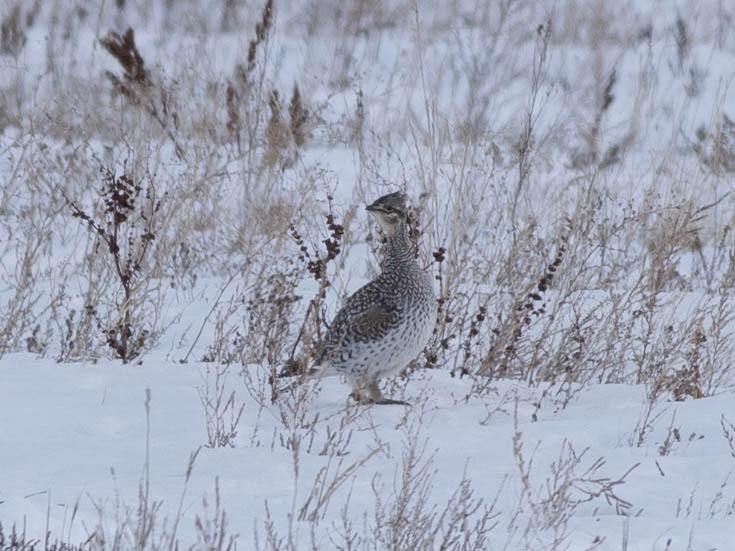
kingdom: Animalia
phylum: Chordata
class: Aves
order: Galliformes
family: Phasianidae
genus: Tympanuchus
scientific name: Tympanuchus phasianellus
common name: Sharp-tailed grouse
